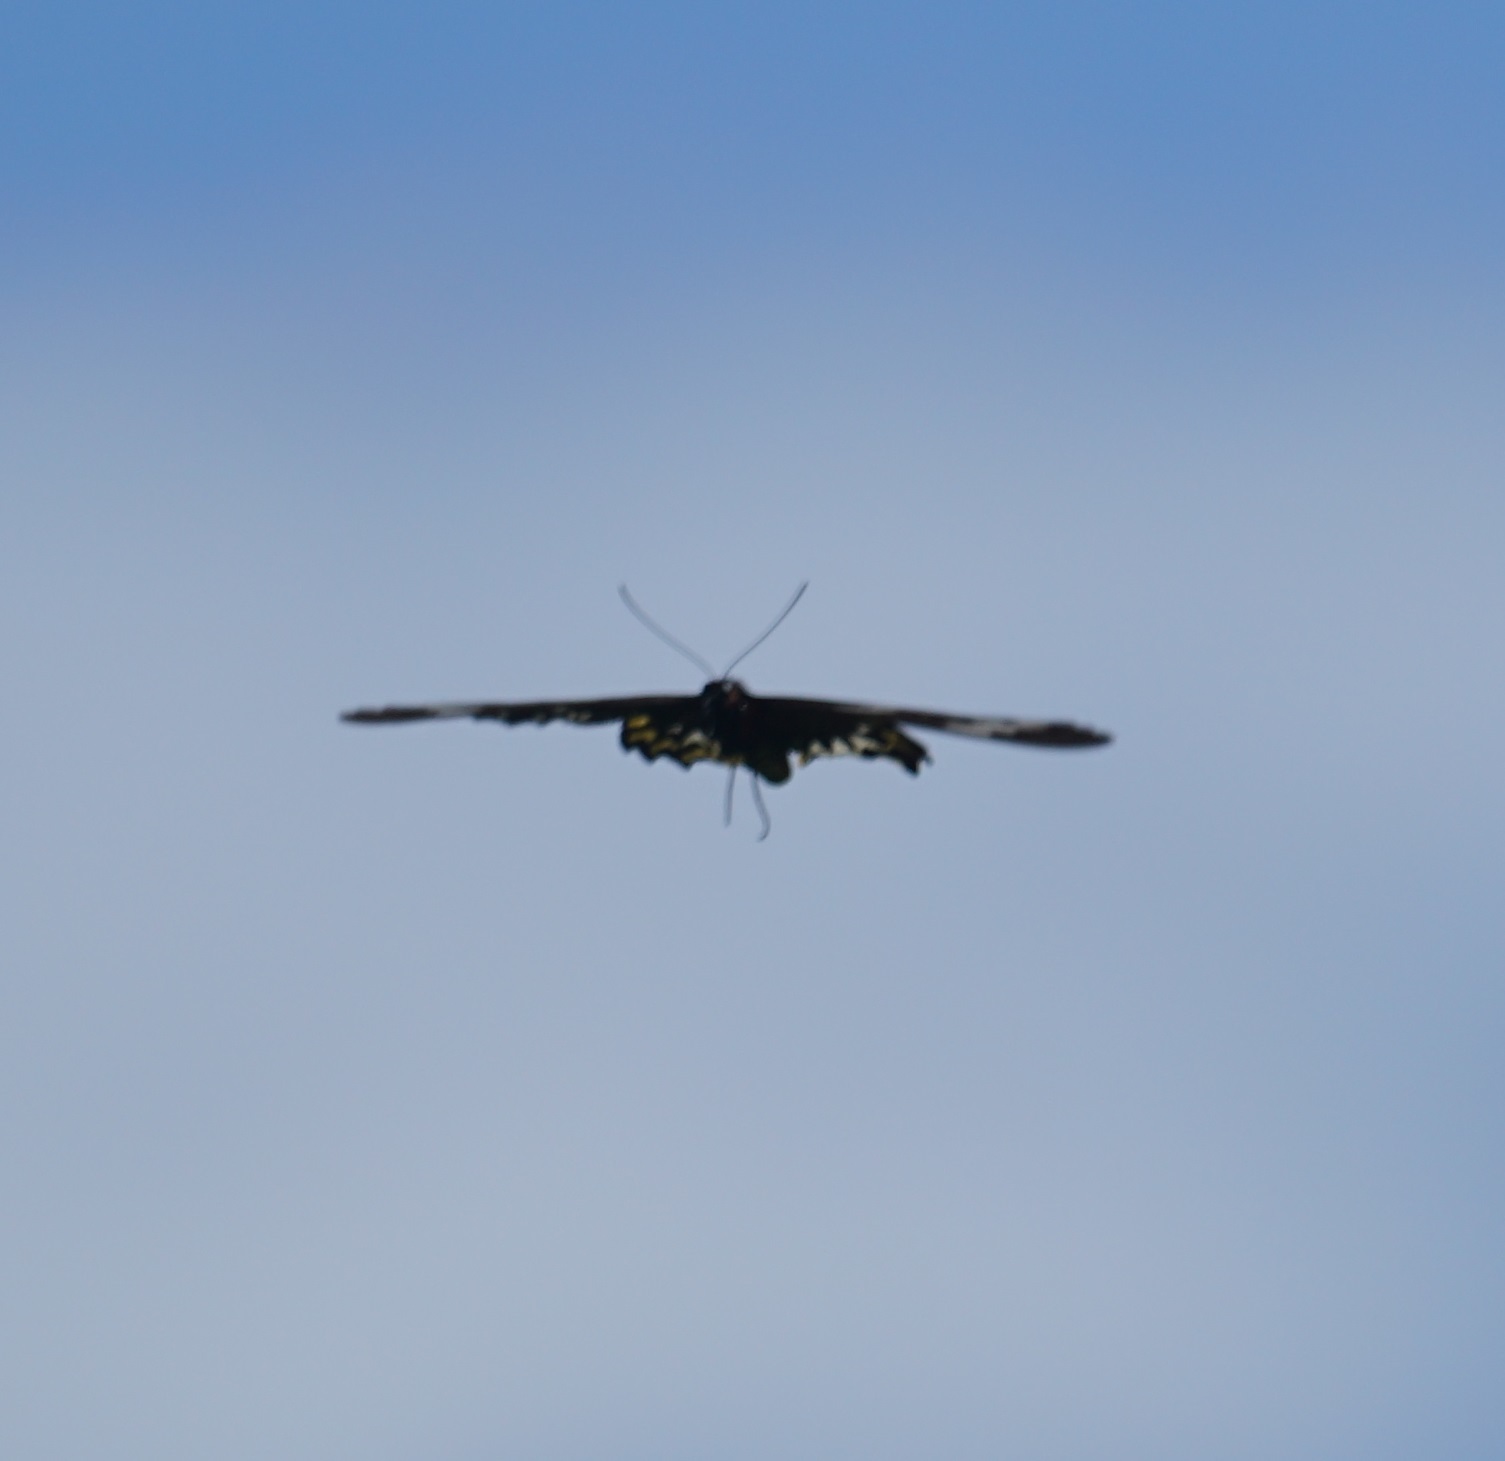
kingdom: Animalia
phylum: Arthropoda
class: Insecta
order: Lepidoptera
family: Papilionidae
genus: Ornithoptera
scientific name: Ornithoptera euphorion
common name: Cairns birdwing
